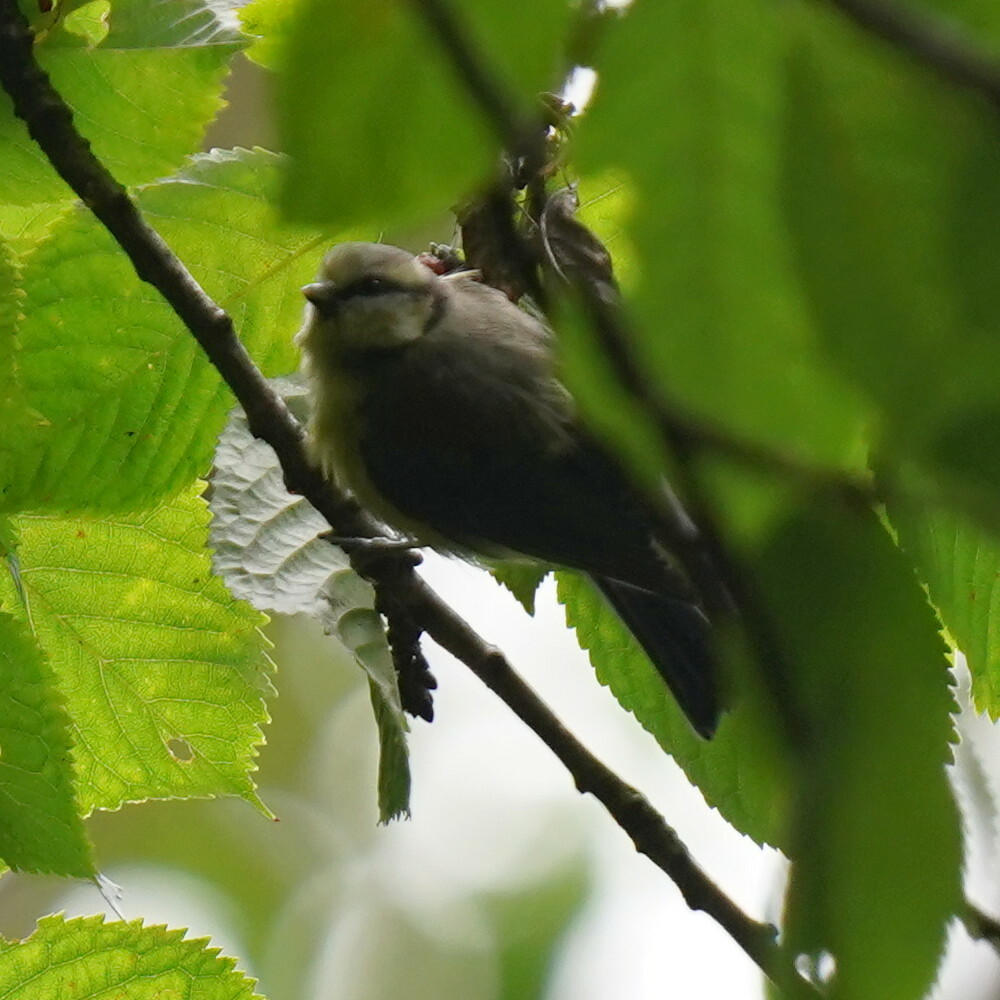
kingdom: Animalia
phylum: Chordata
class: Aves
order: Passeriformes
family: Paridae
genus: Cyanistes
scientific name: Cyanistes caeruleus
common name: Eurasian blue tit
